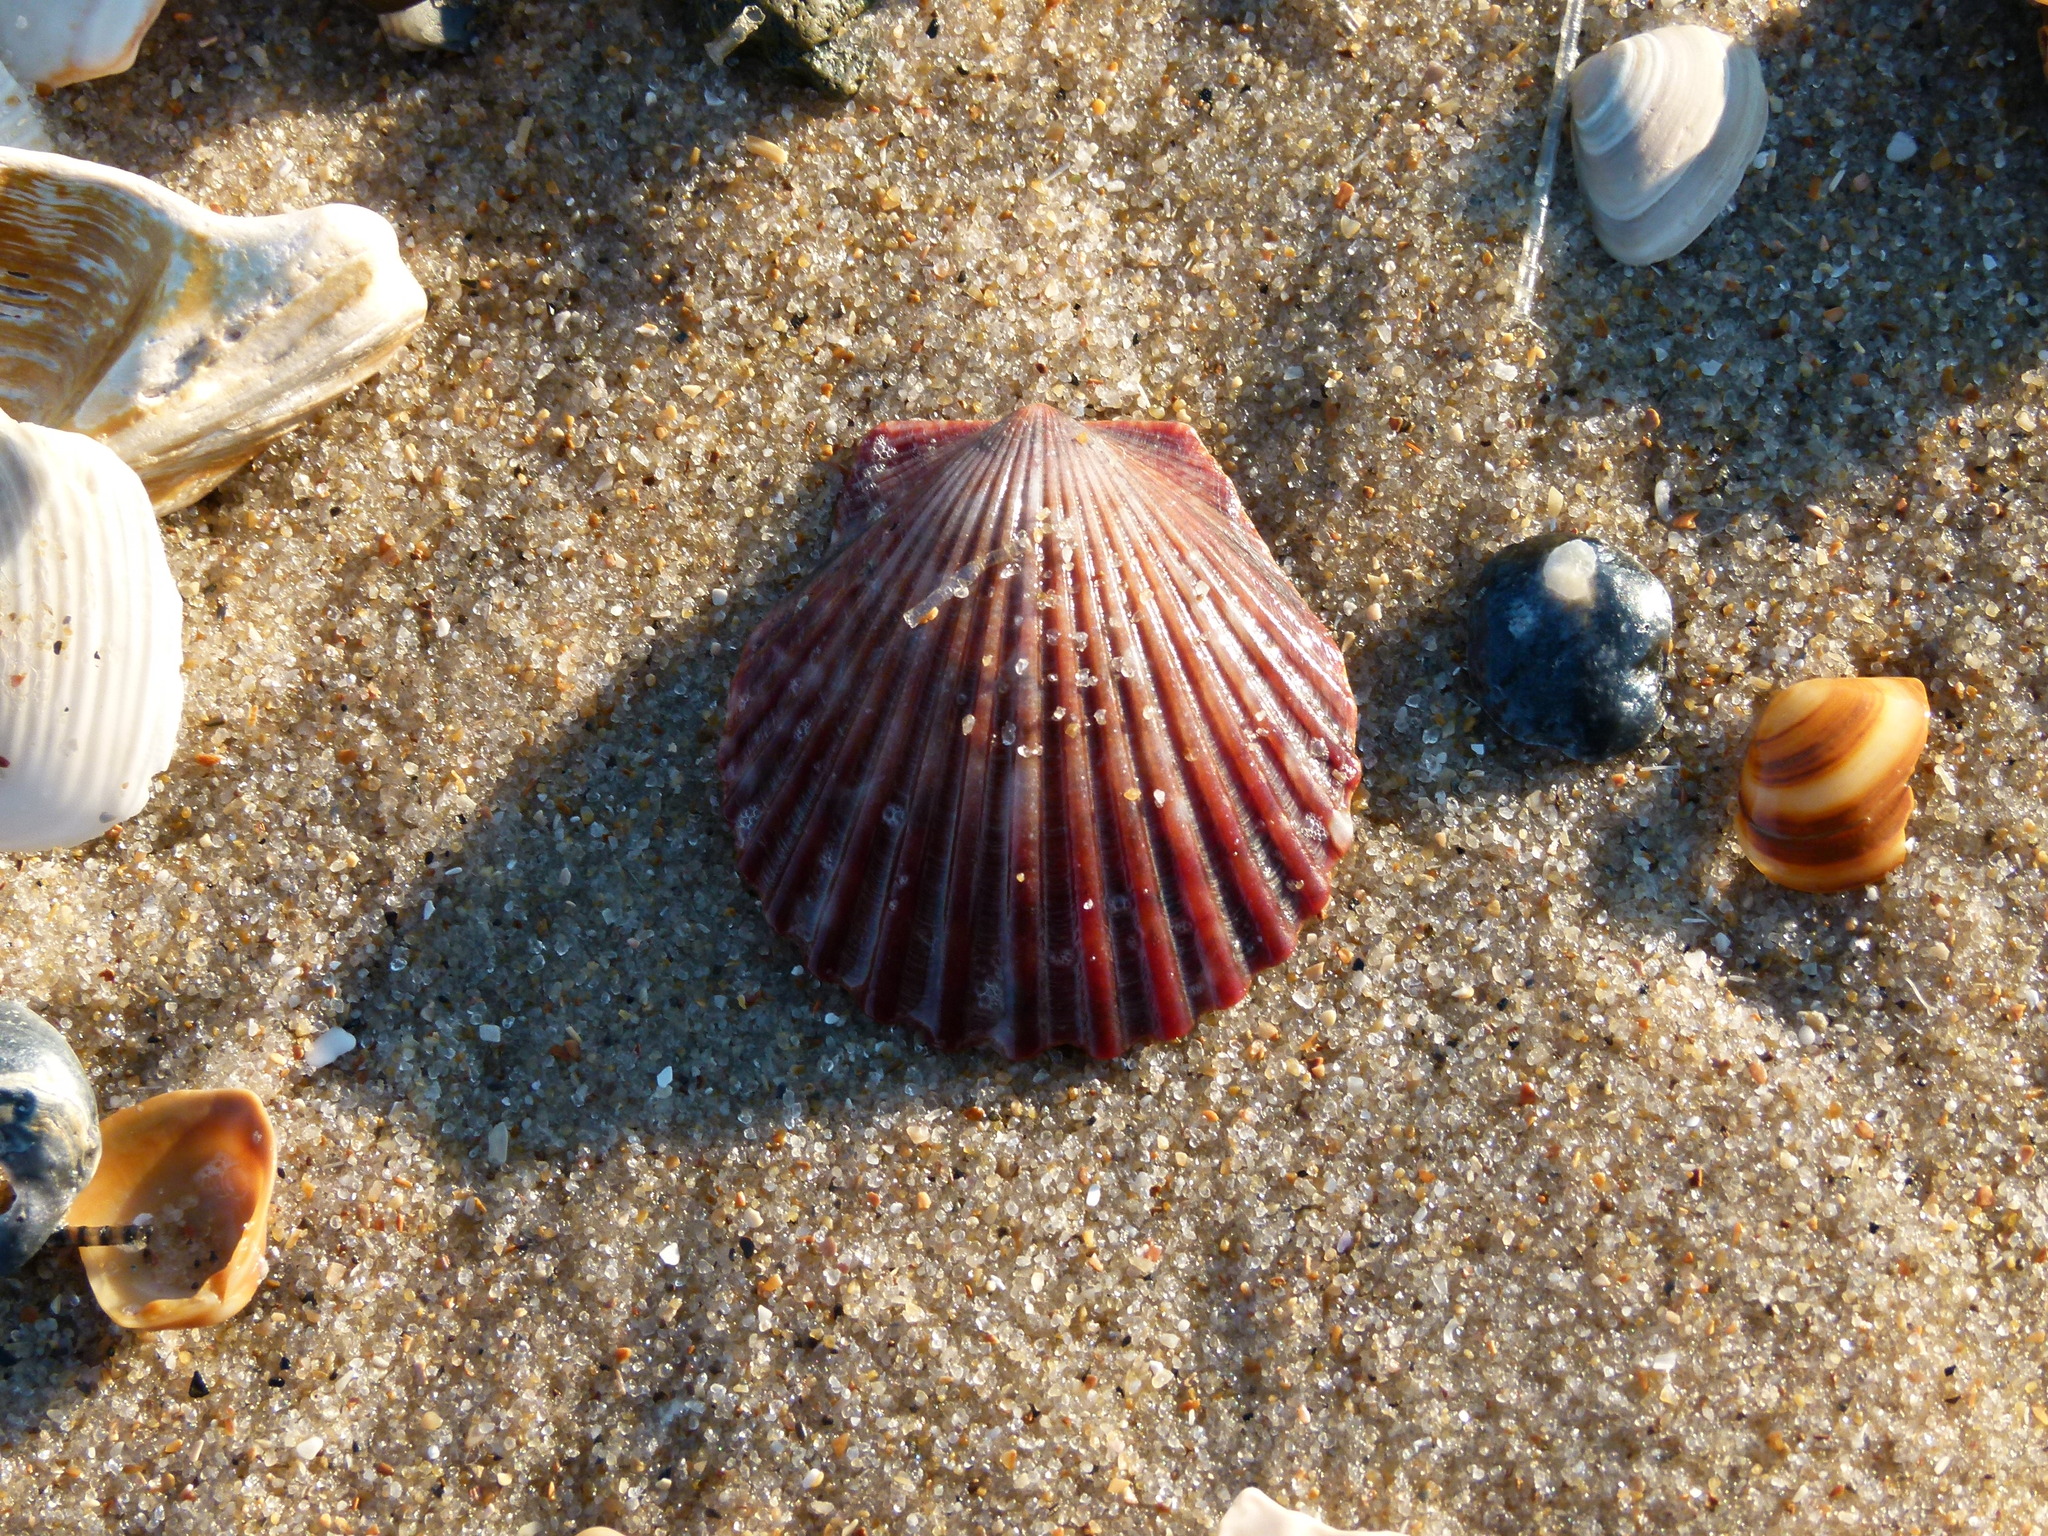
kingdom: Animalia
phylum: Mollusca
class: Bivalvia
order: Pectinida
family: Pectinidae
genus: Argopecten
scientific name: Argopecten irradians
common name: Atlantic bay scallop
